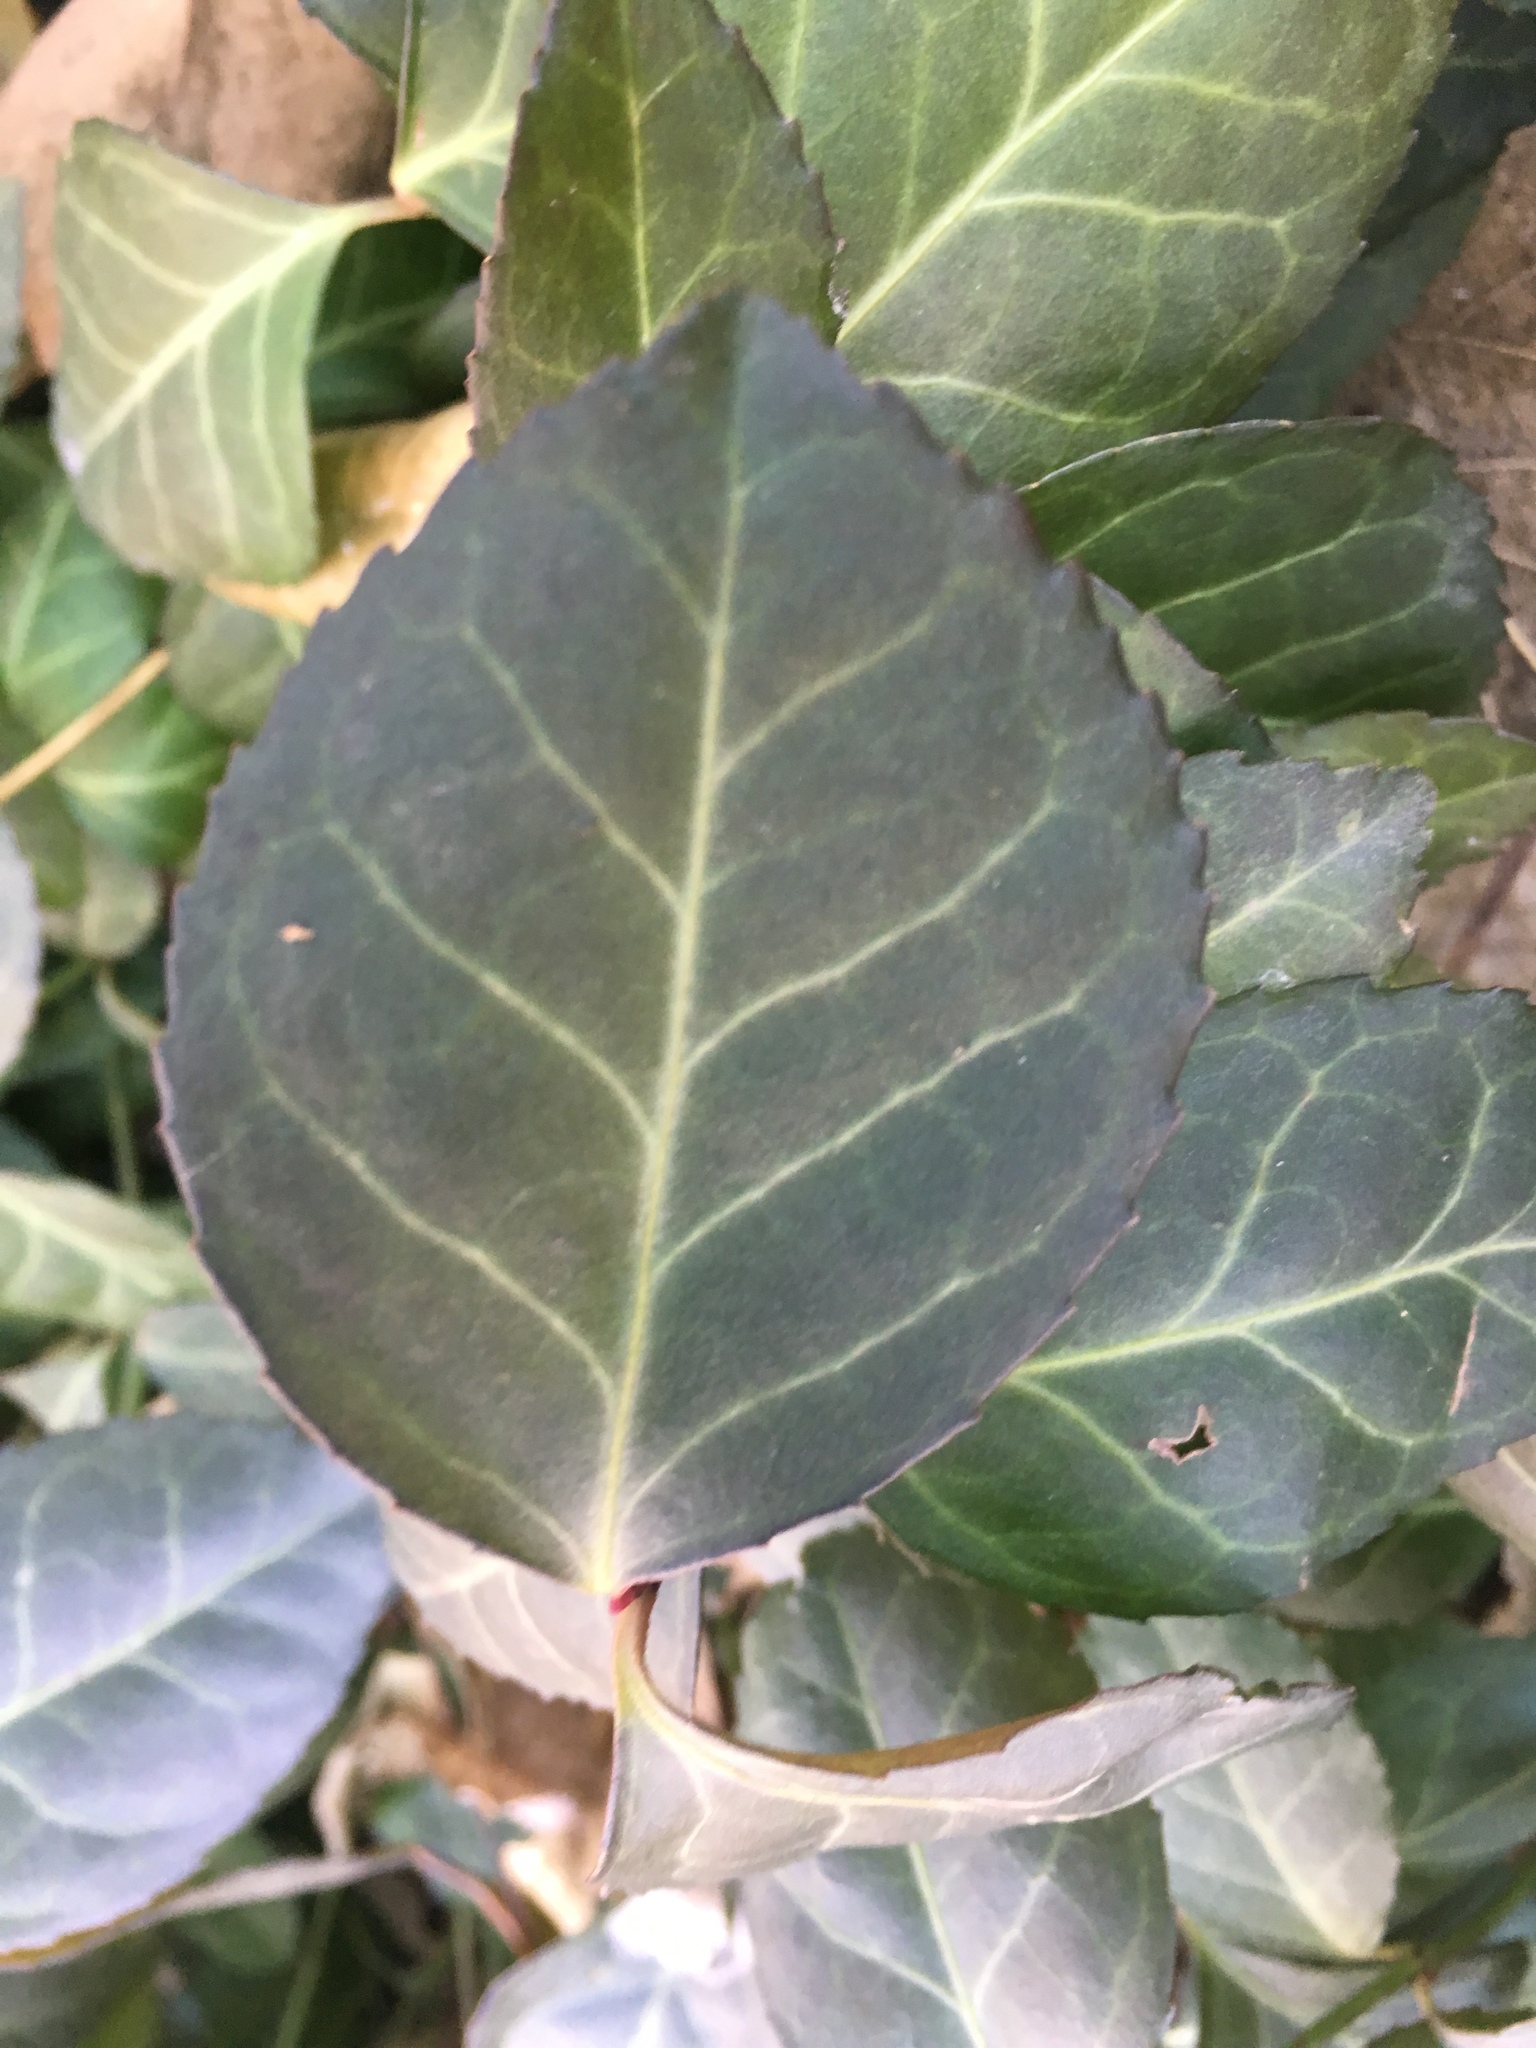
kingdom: Plantae
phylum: Tracheophyta
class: Magnoliopsida
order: Celastrales
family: Celastraceae
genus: Euonymus
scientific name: Euonymus fortunei
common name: Climbing euonymus
